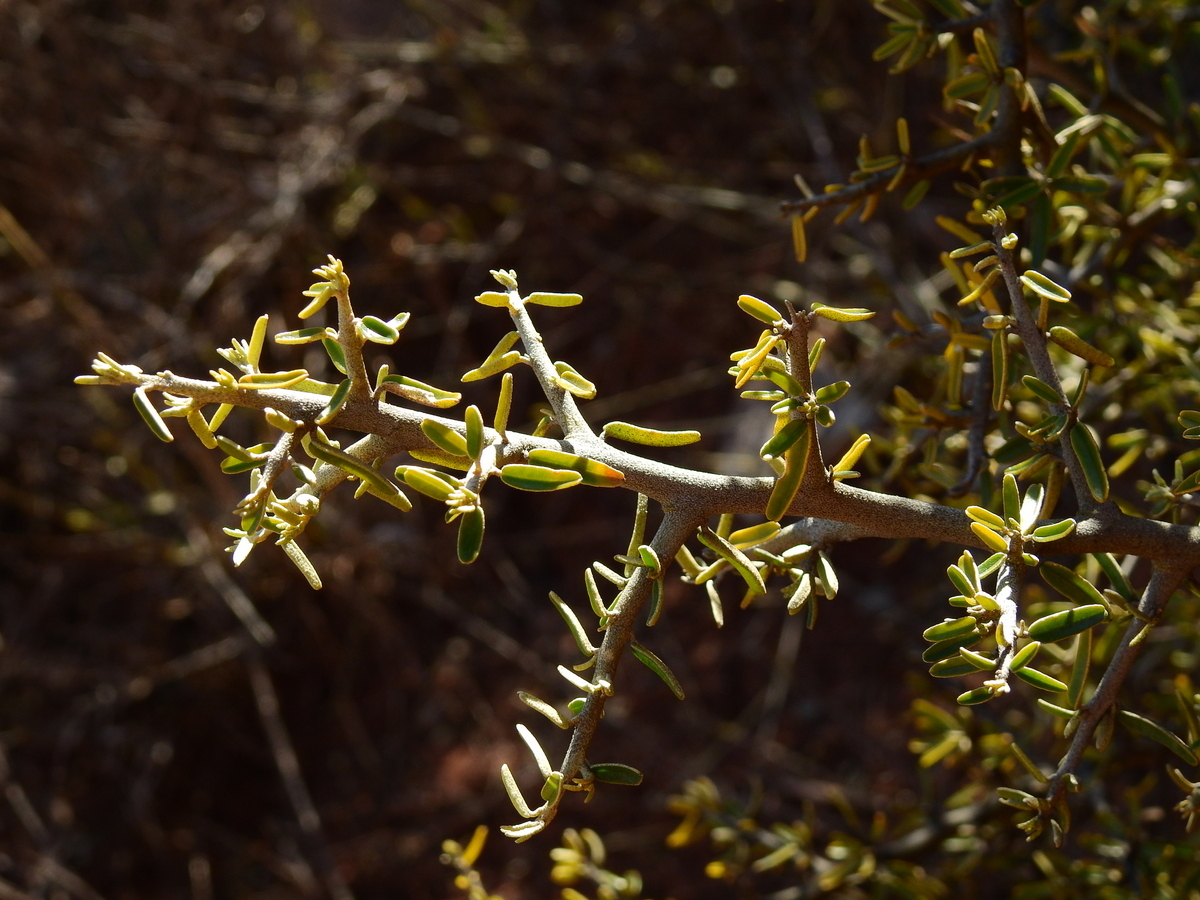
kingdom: Plantae
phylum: Tracheophyta
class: Magnoliopsida
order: Brassicales
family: Capparaceae
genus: Atamisquea
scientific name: Atamisquea emarginata
